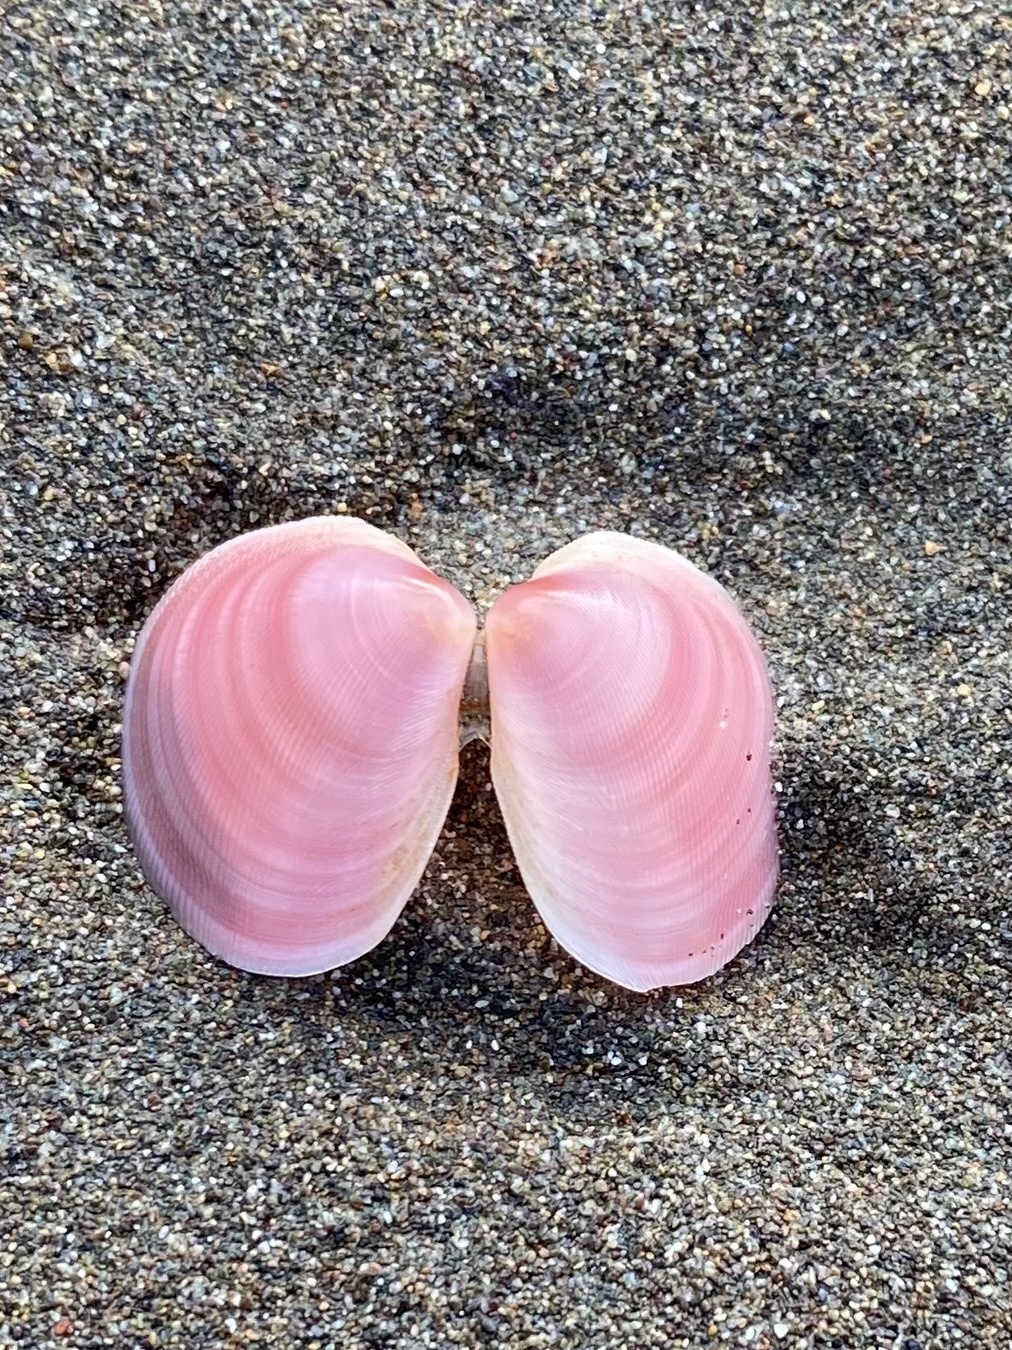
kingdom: Animalia
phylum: Mollusca
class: Bivalvia
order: Cardiida
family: Tellinidae
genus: Strigilla
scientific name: Strigilla chroma
